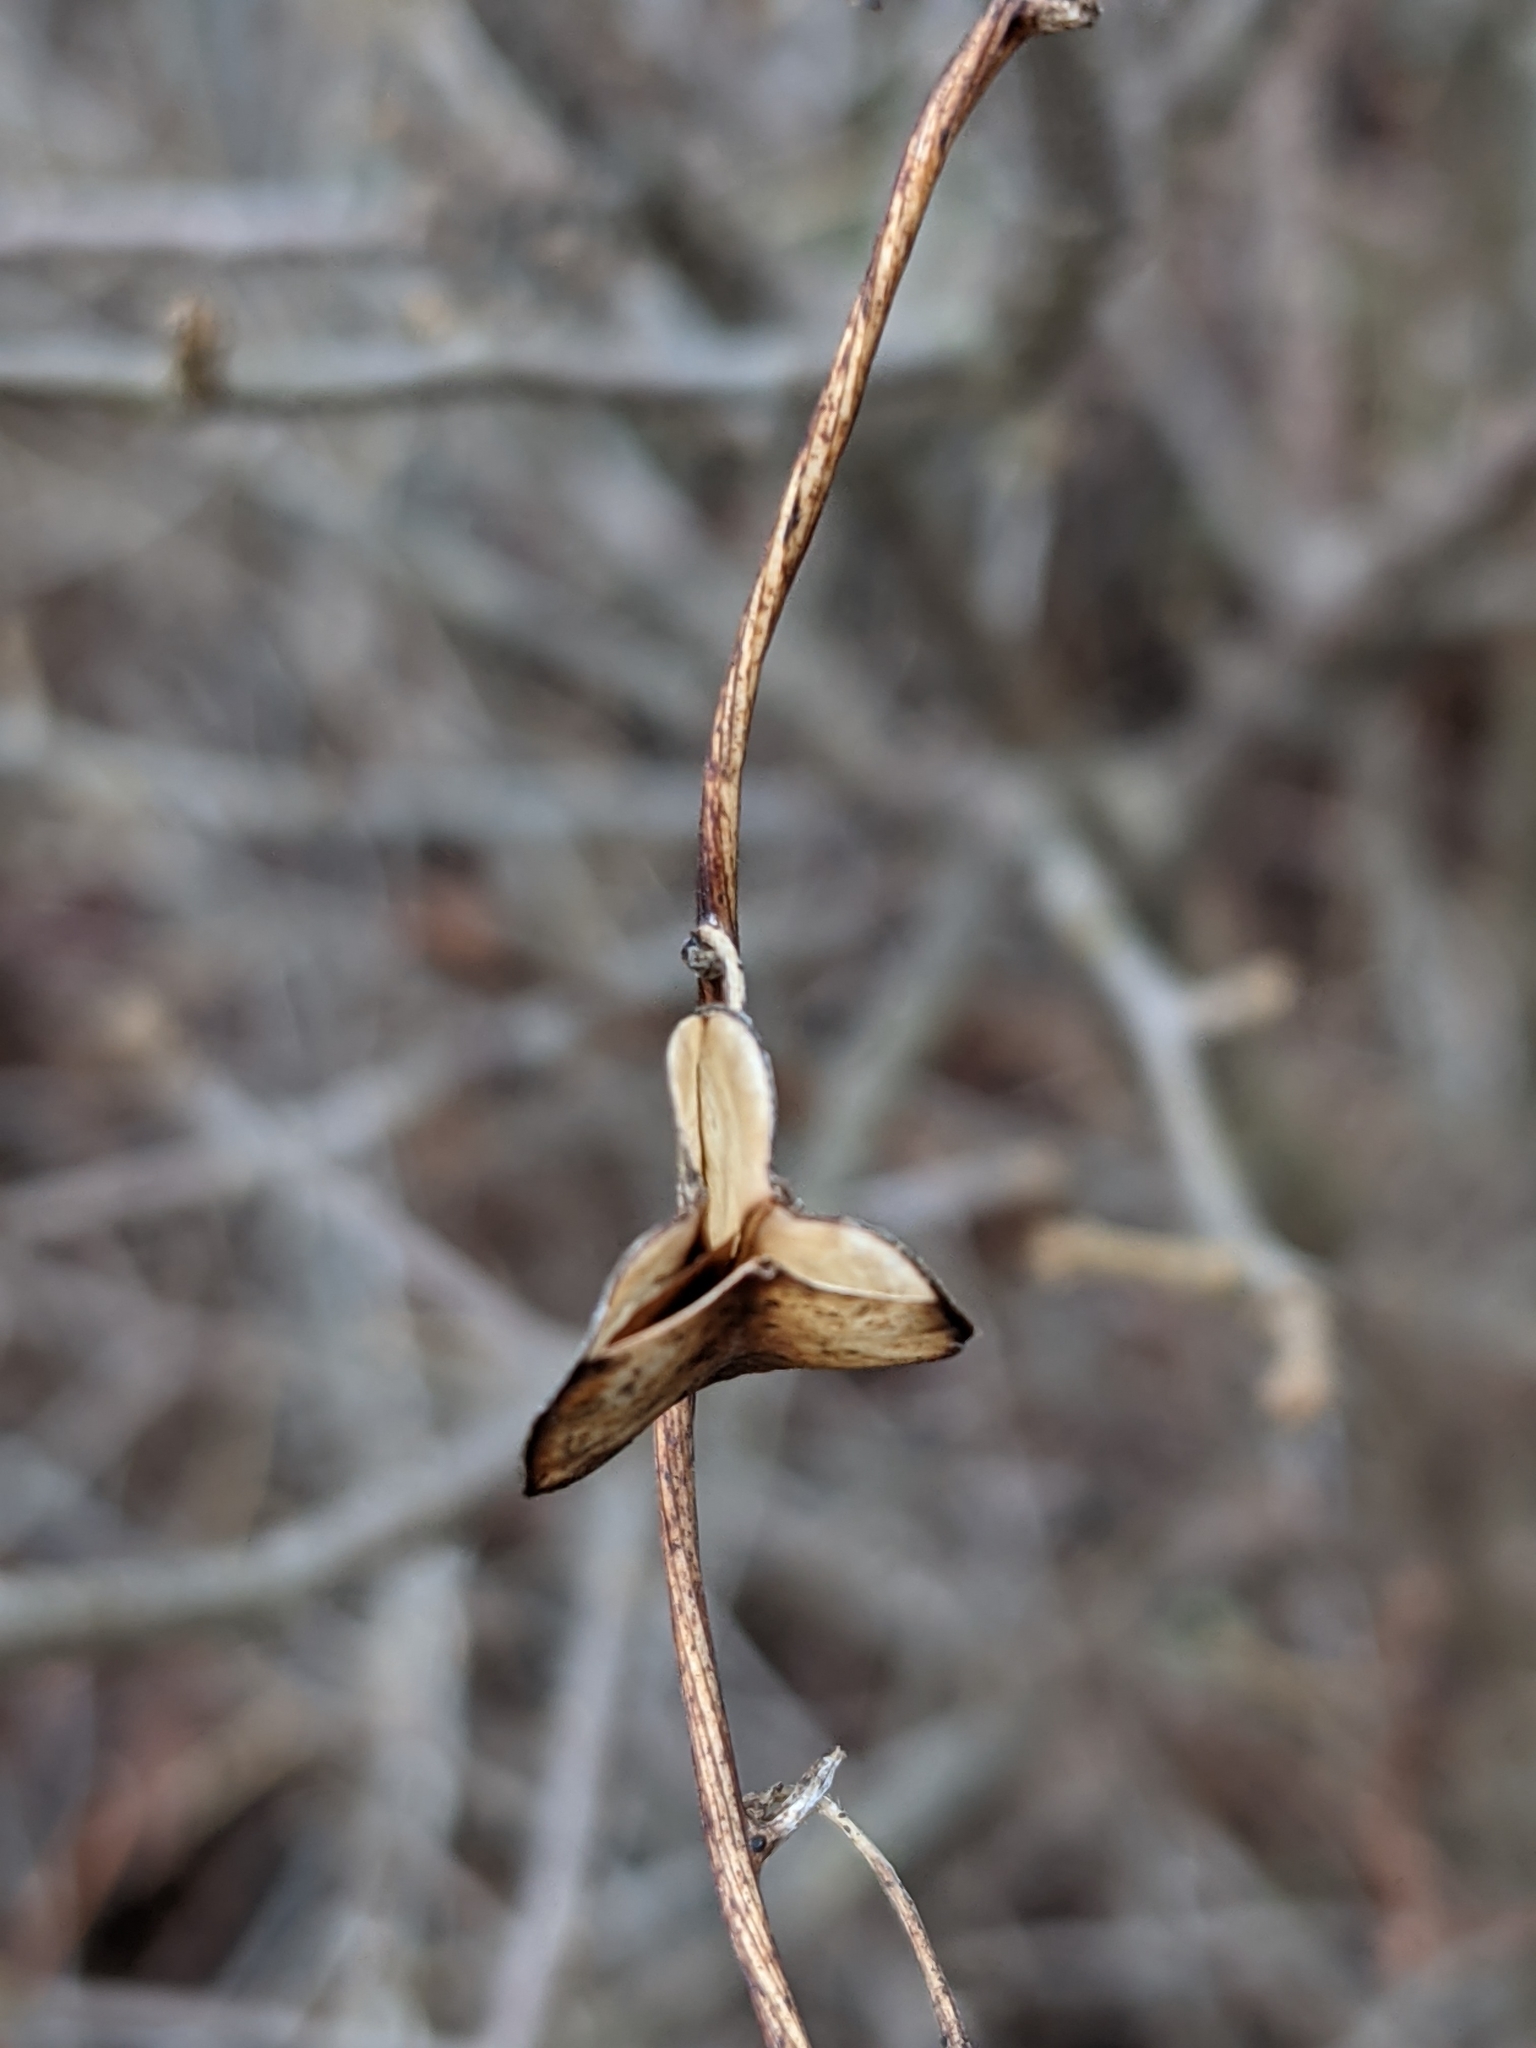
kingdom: Plantae
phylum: Tracheophyta
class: Liliopsida
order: Dioscoreales
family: Dioscoreaceae
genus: Dioscorea
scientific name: Dioscorea villosa
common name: Wild yam
